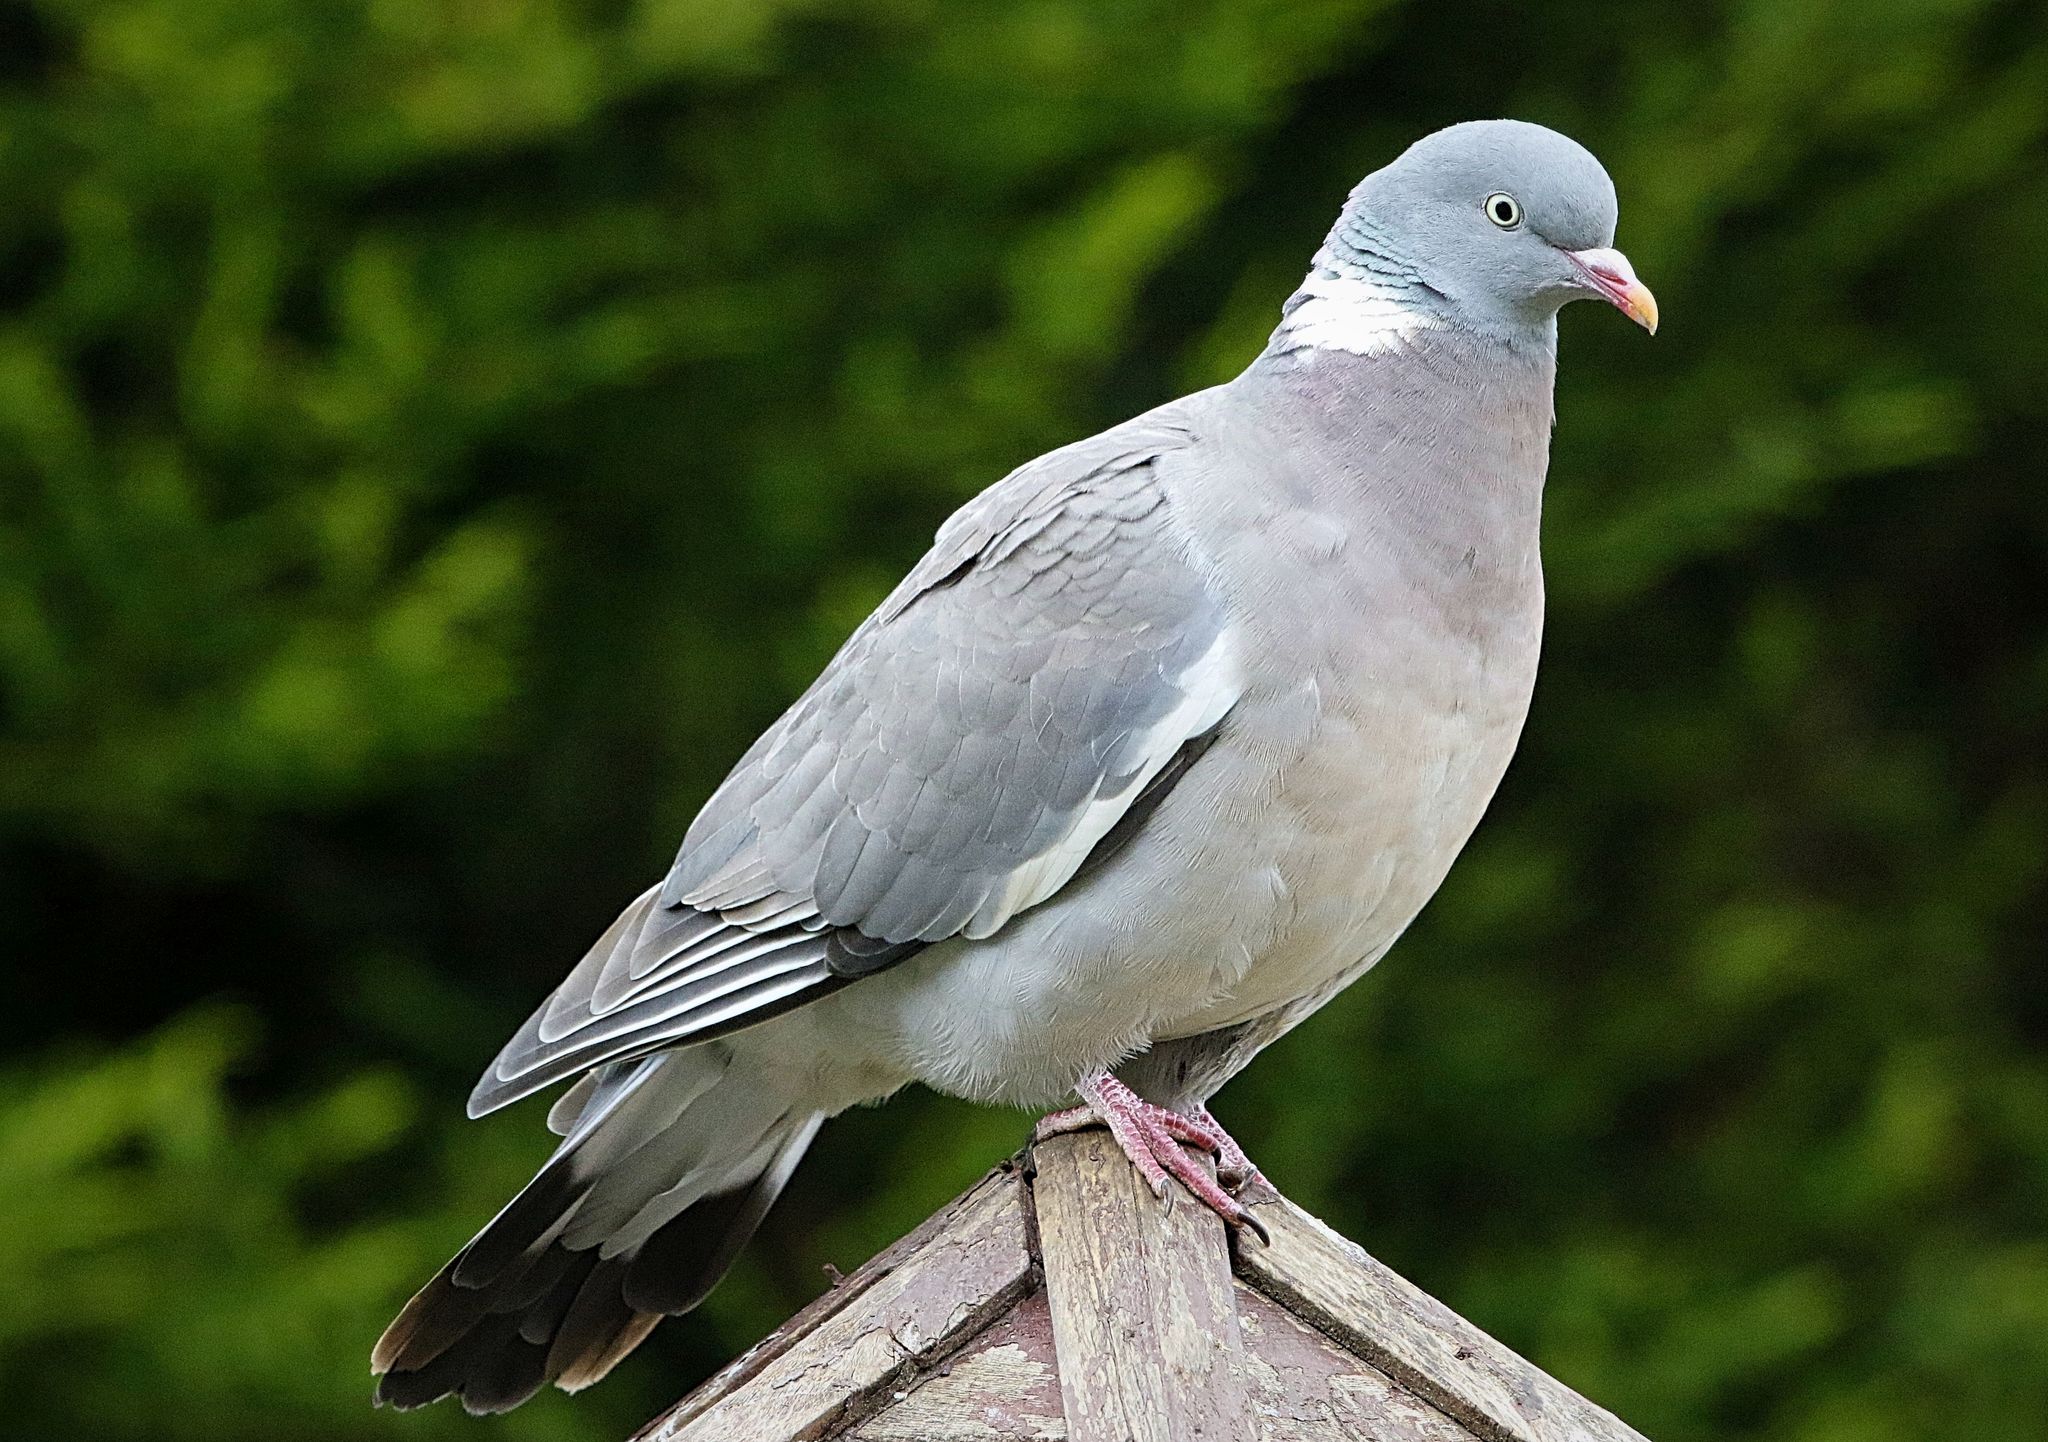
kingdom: Animalia
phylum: Chordata
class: Aves
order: Columbiformes
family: Columbidae
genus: Columba
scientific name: Columba palumbus
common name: Common wood pigeon
